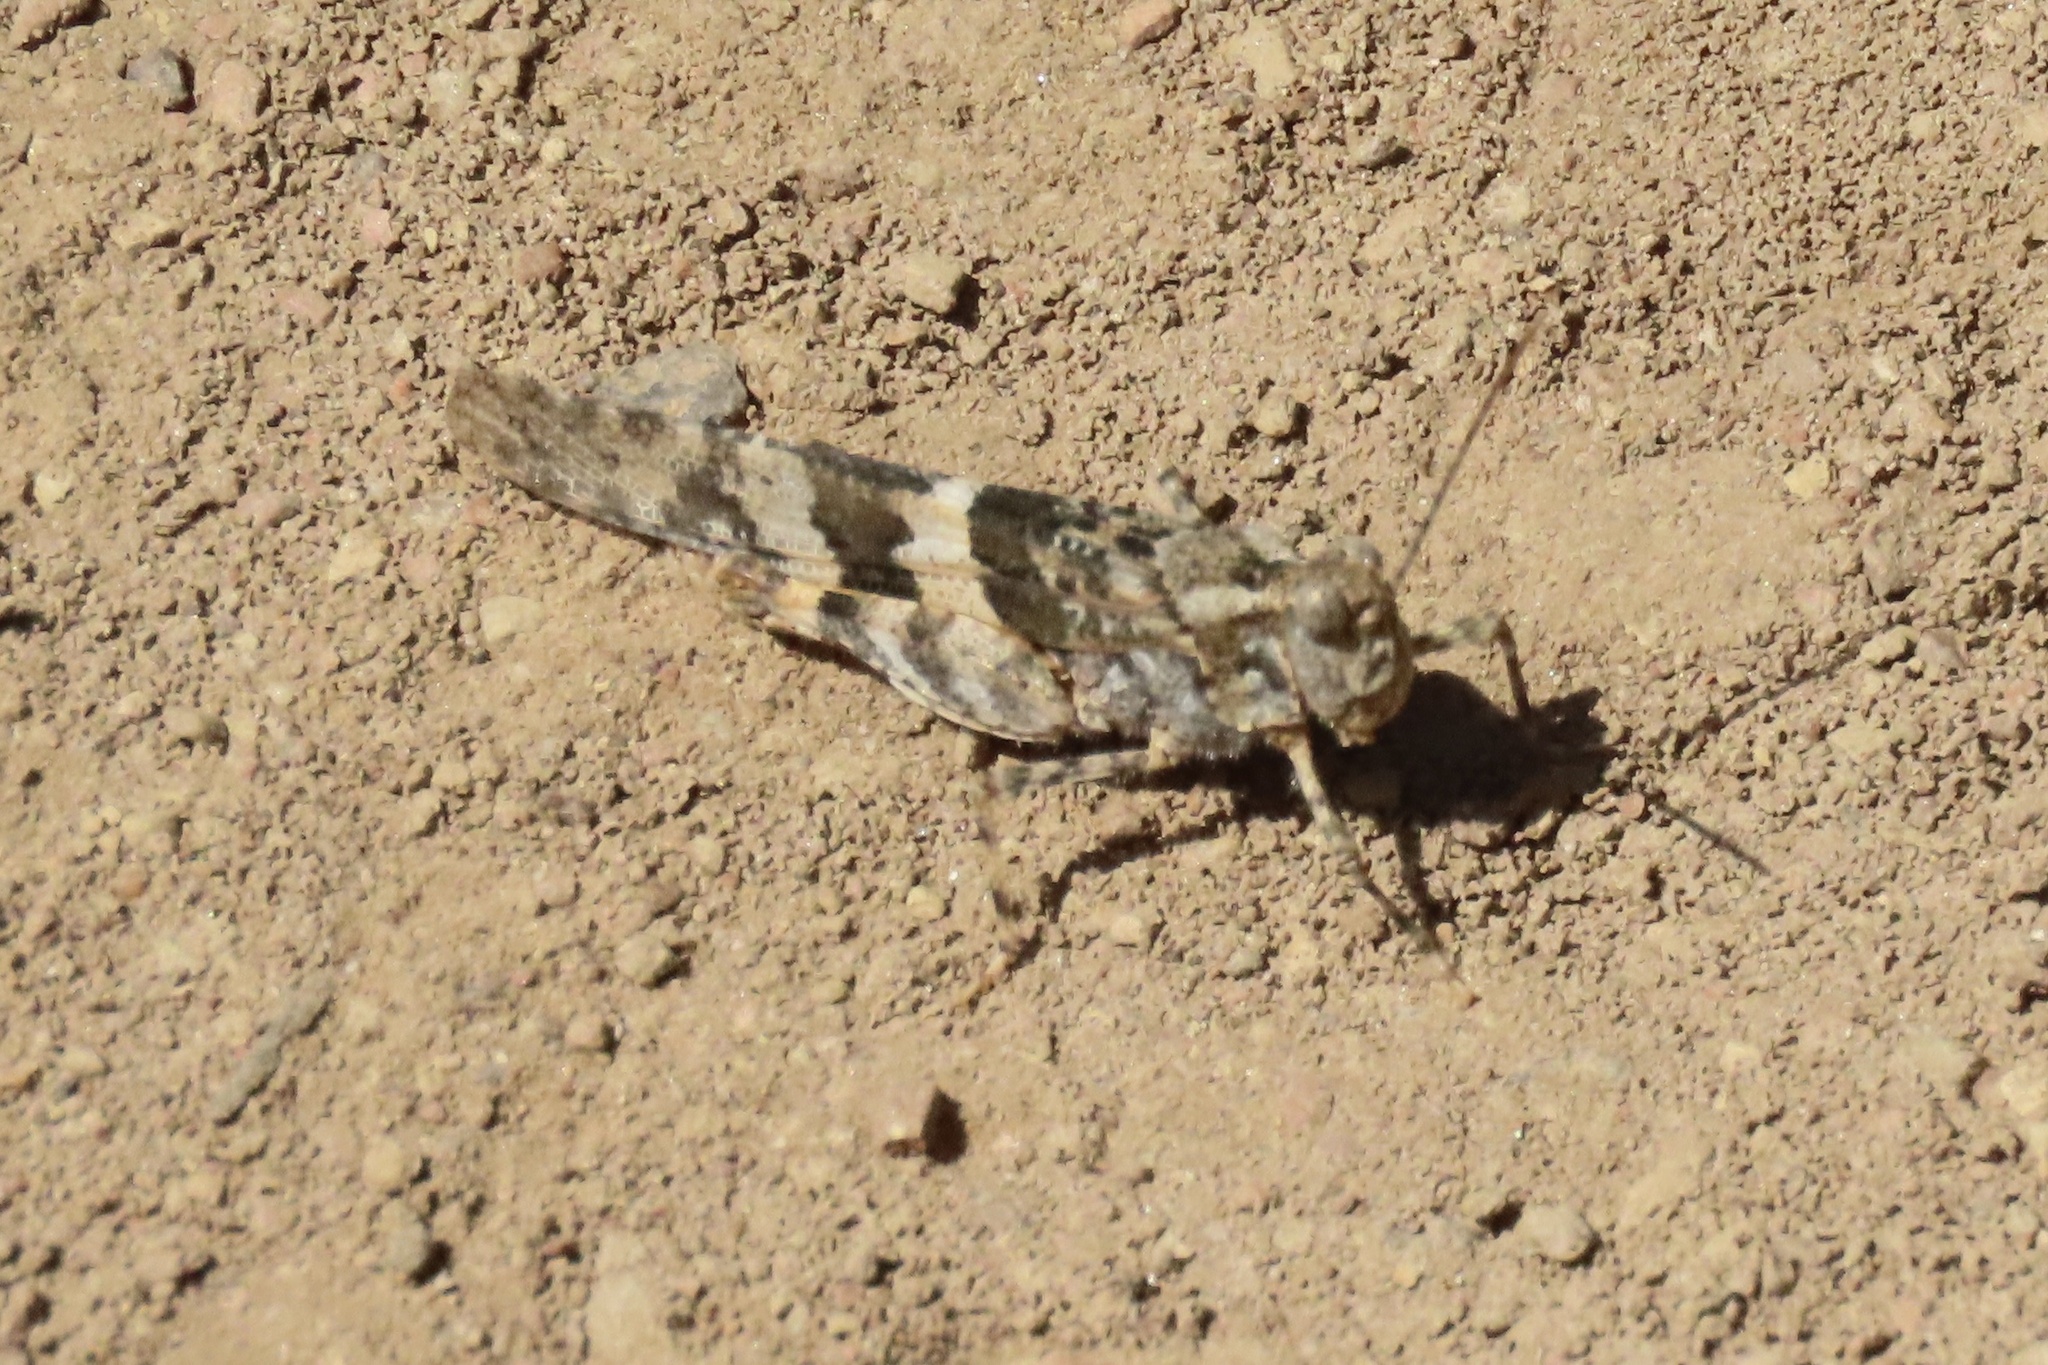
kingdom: Animalia
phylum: Arthropoda
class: Insecta
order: Orthoptera
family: Acrididae
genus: Trimerotropis
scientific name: Trimerotropis pallidipennis
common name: Pallid-winged grasshopper
